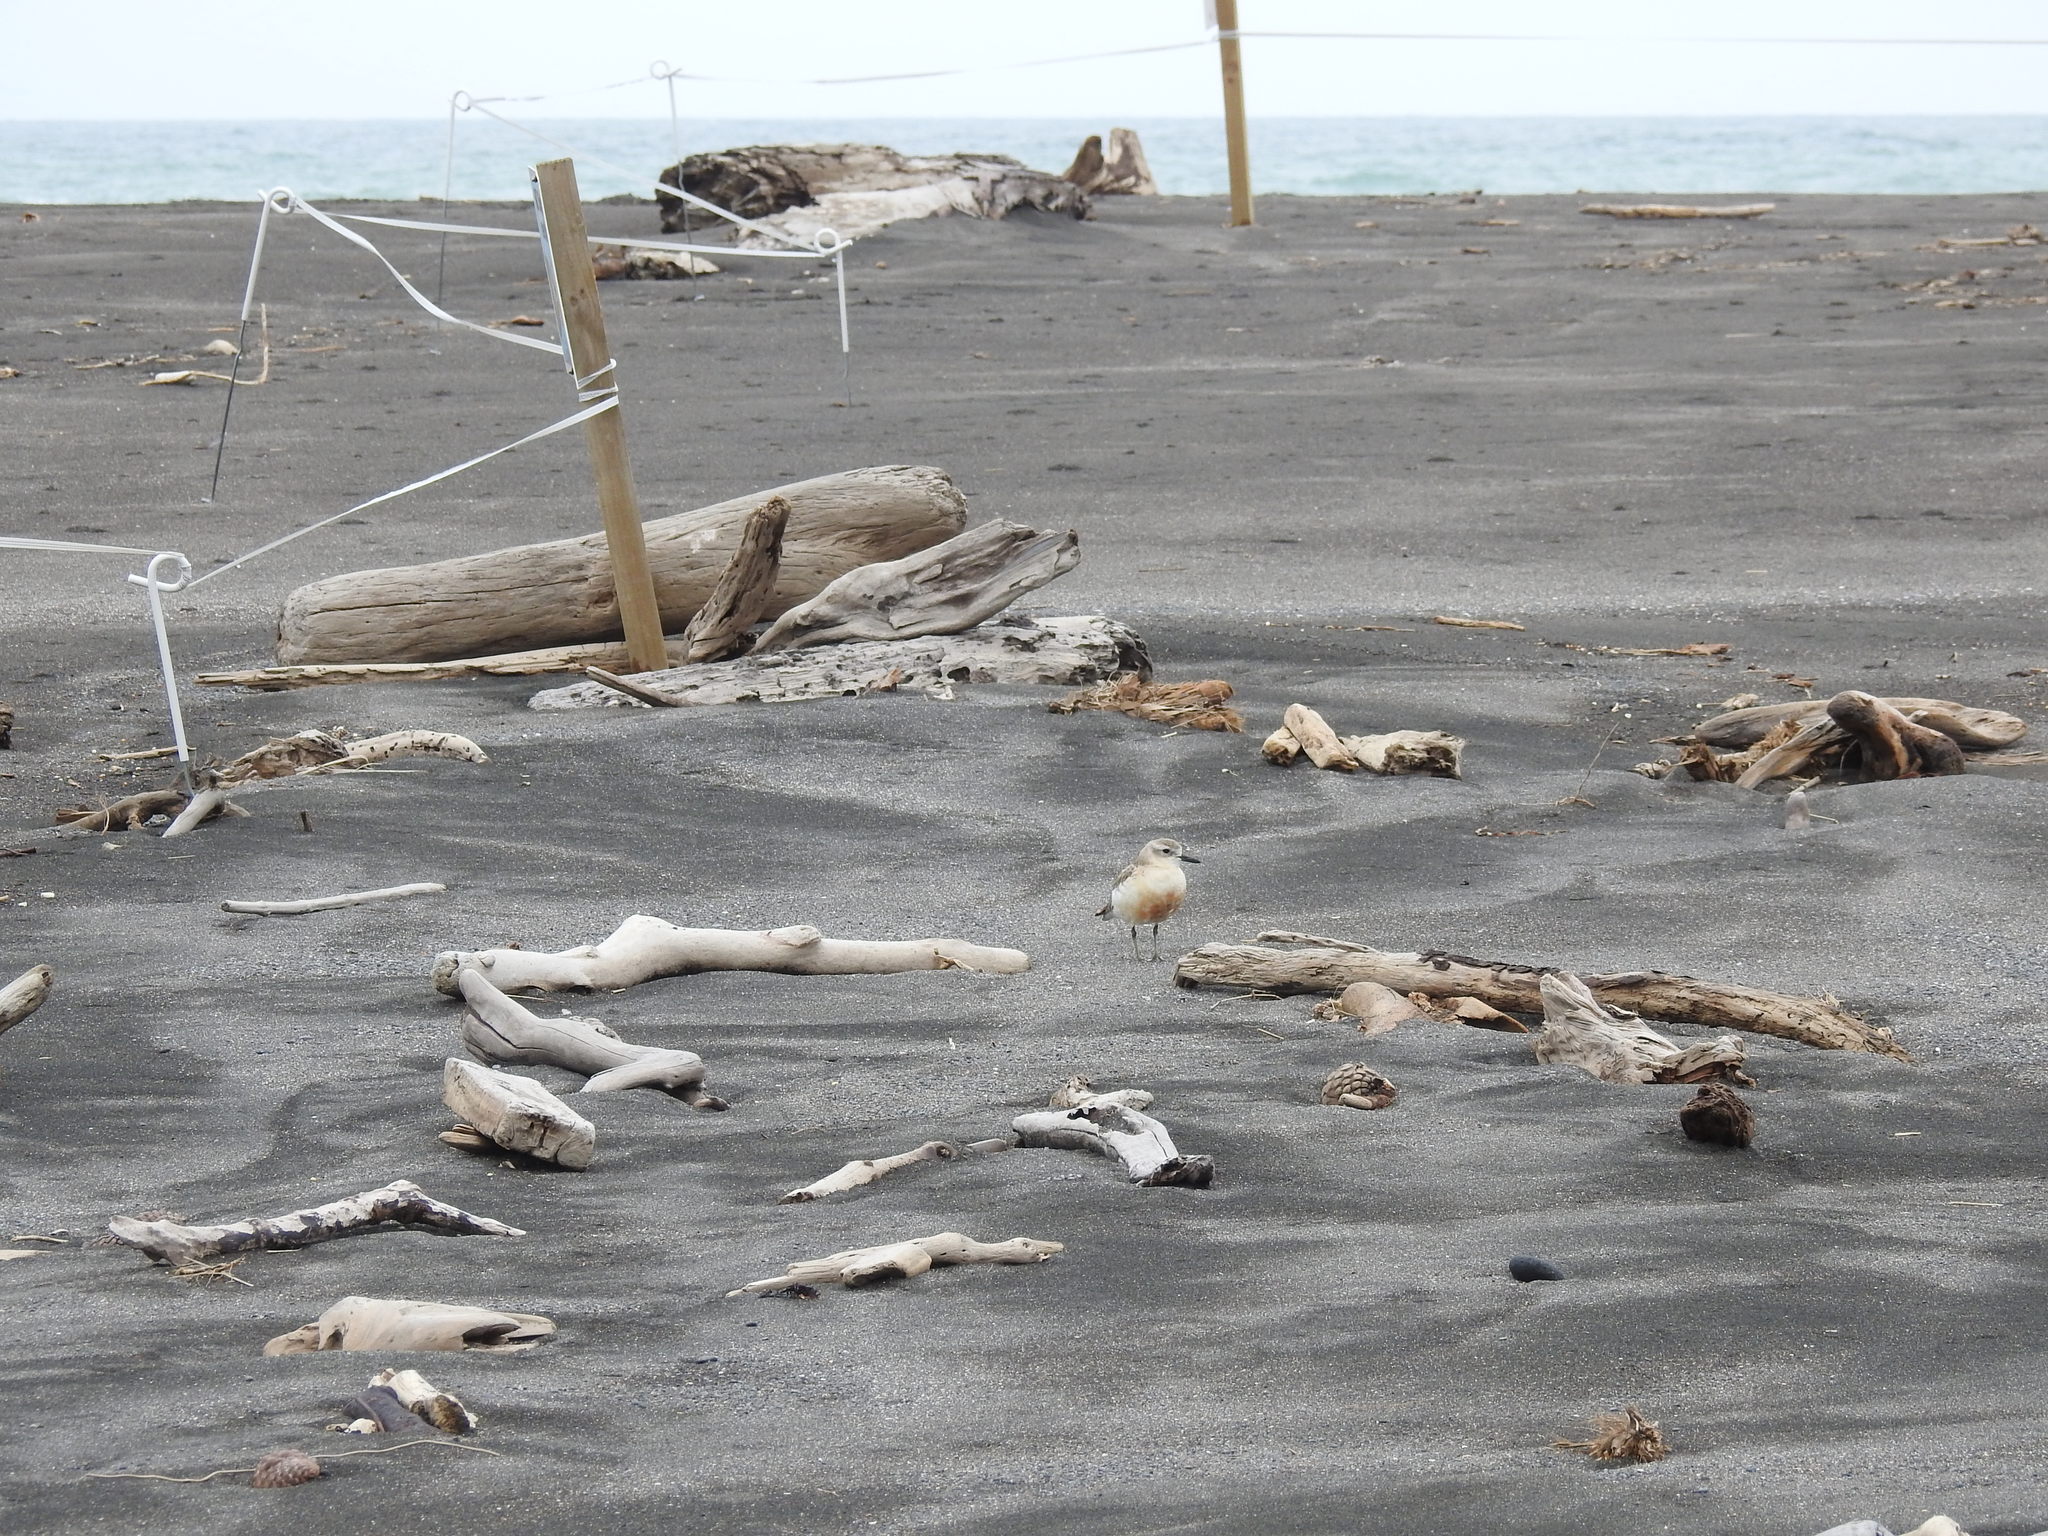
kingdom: Animalia
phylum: Chordata
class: Aves
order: Charadriiformes
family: Charadriidae
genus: Anarhynchus
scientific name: Anarhynchus
